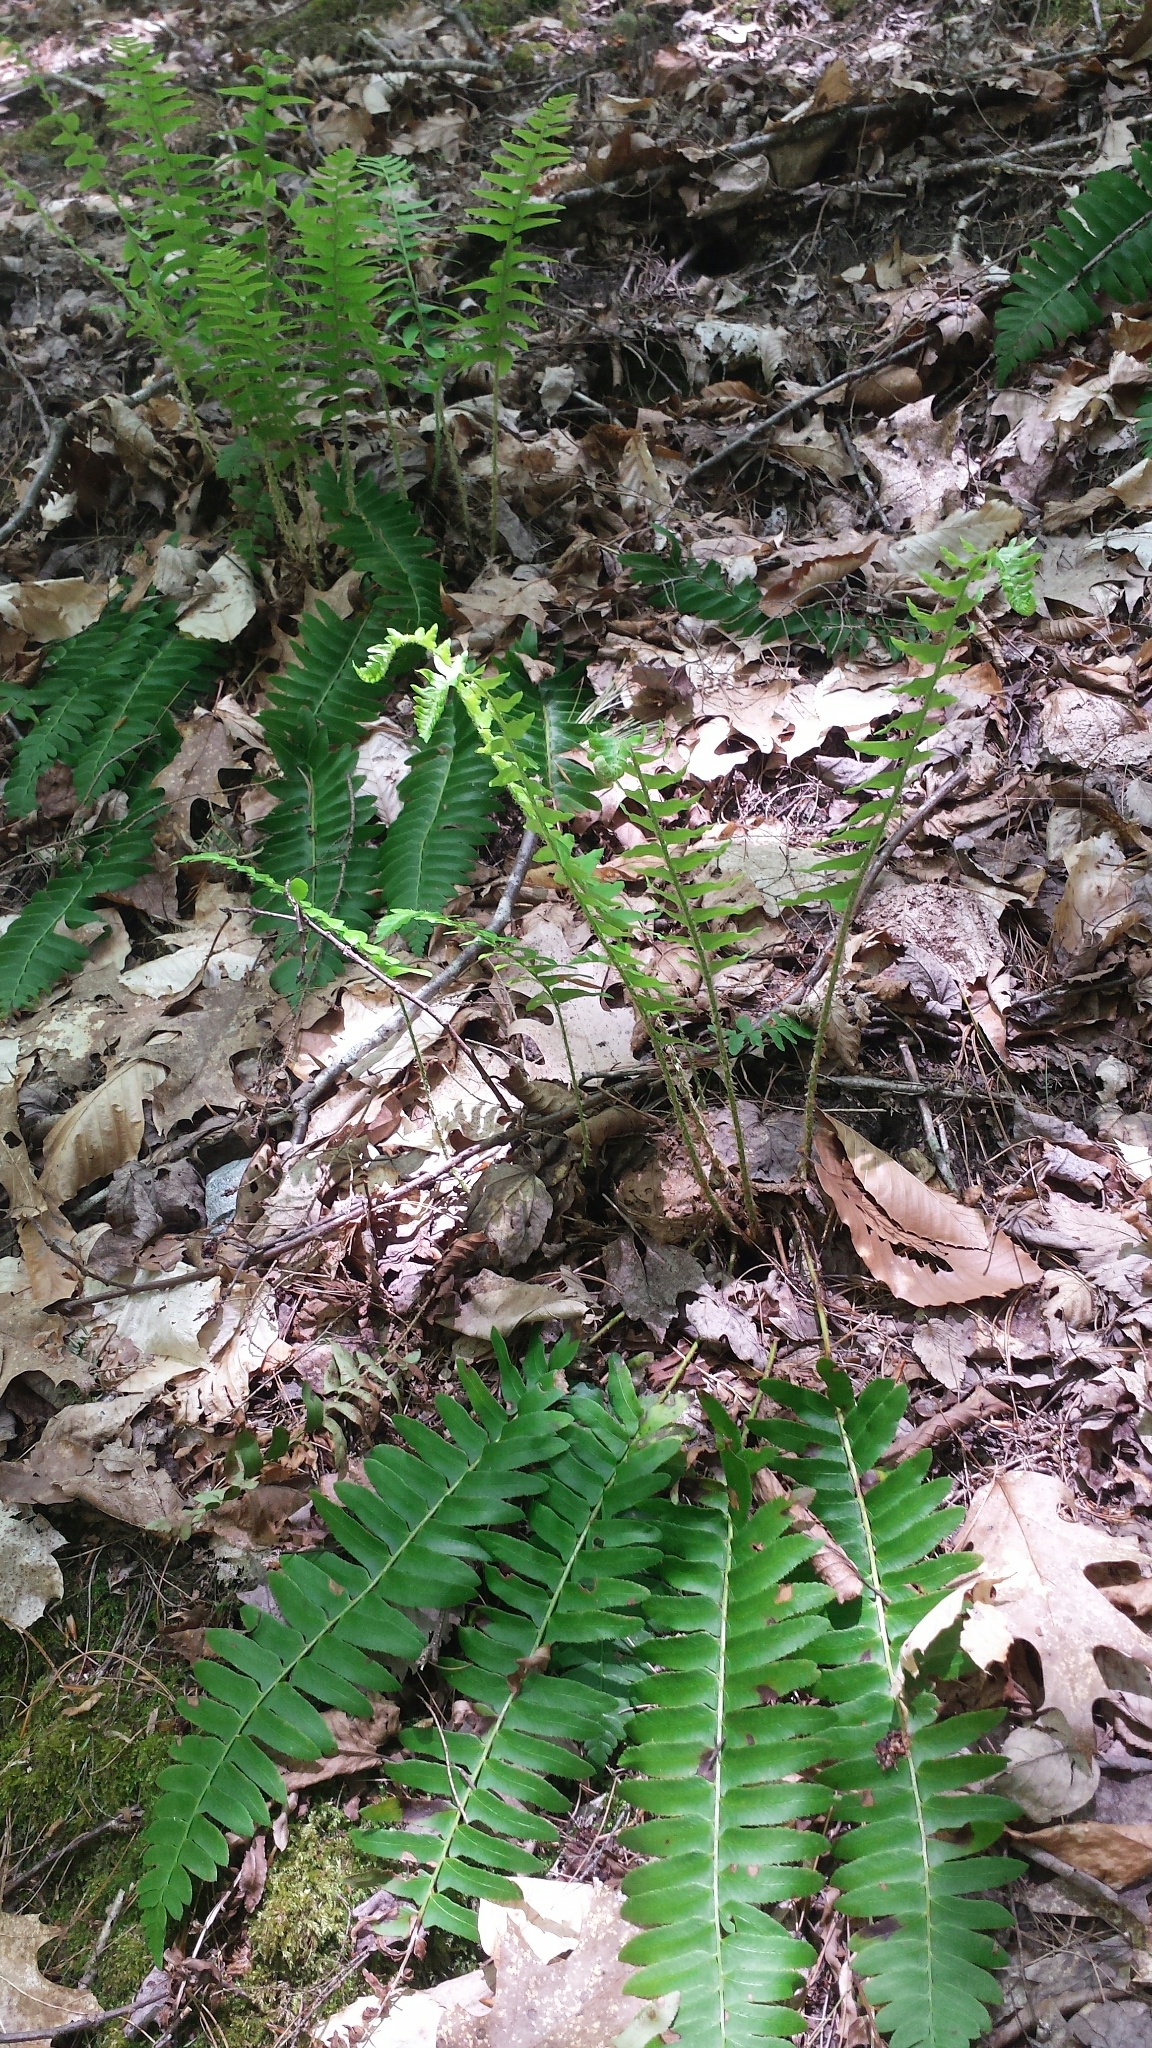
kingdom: Plantae
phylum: Tracheophyta
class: Polypodiopsida
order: Polypodiales
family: Dryopteridaceae
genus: Polystichum
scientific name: Polystichum acrostichoides
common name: Christmas fern
